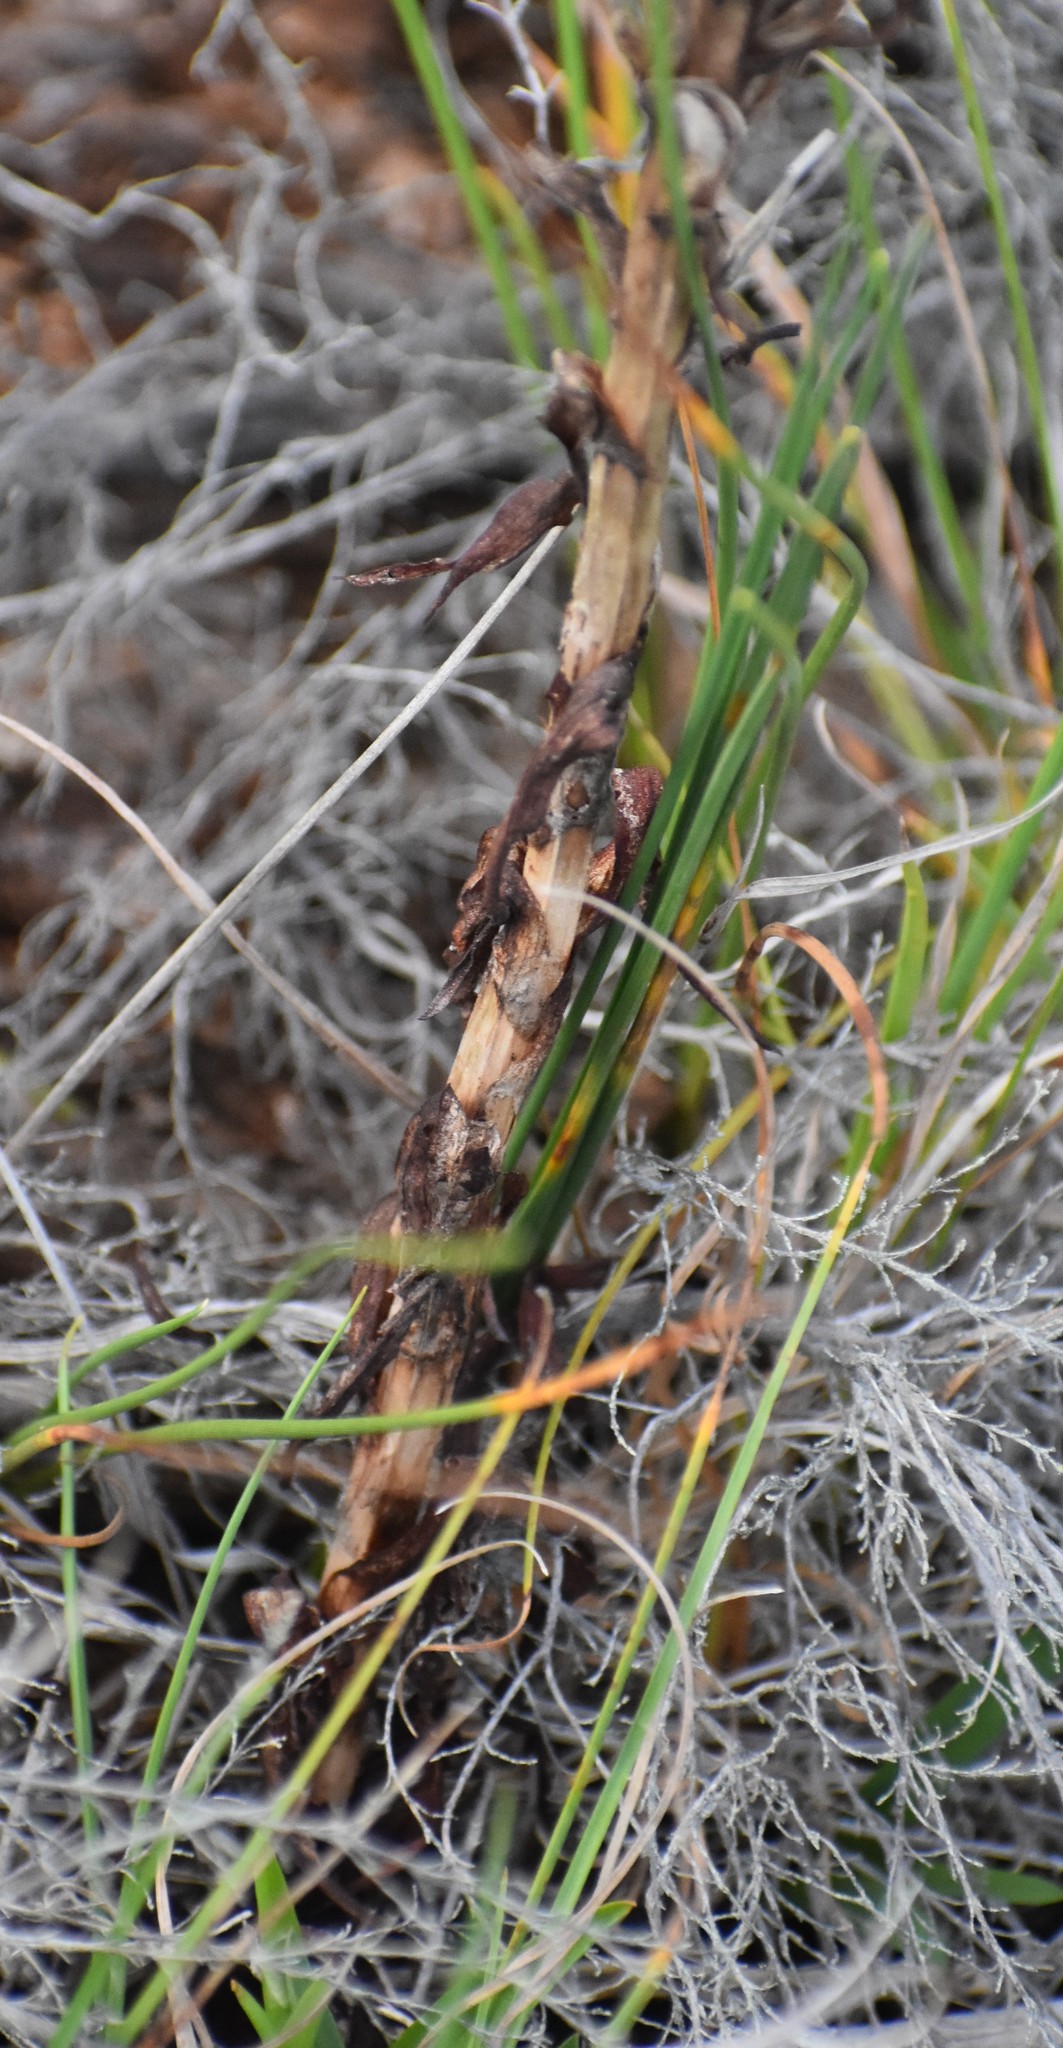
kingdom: Plantae
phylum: Tracheophyta
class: Liliopsida
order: Asparagales
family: Orchidaceae
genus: Disa
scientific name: Disa bracteata
